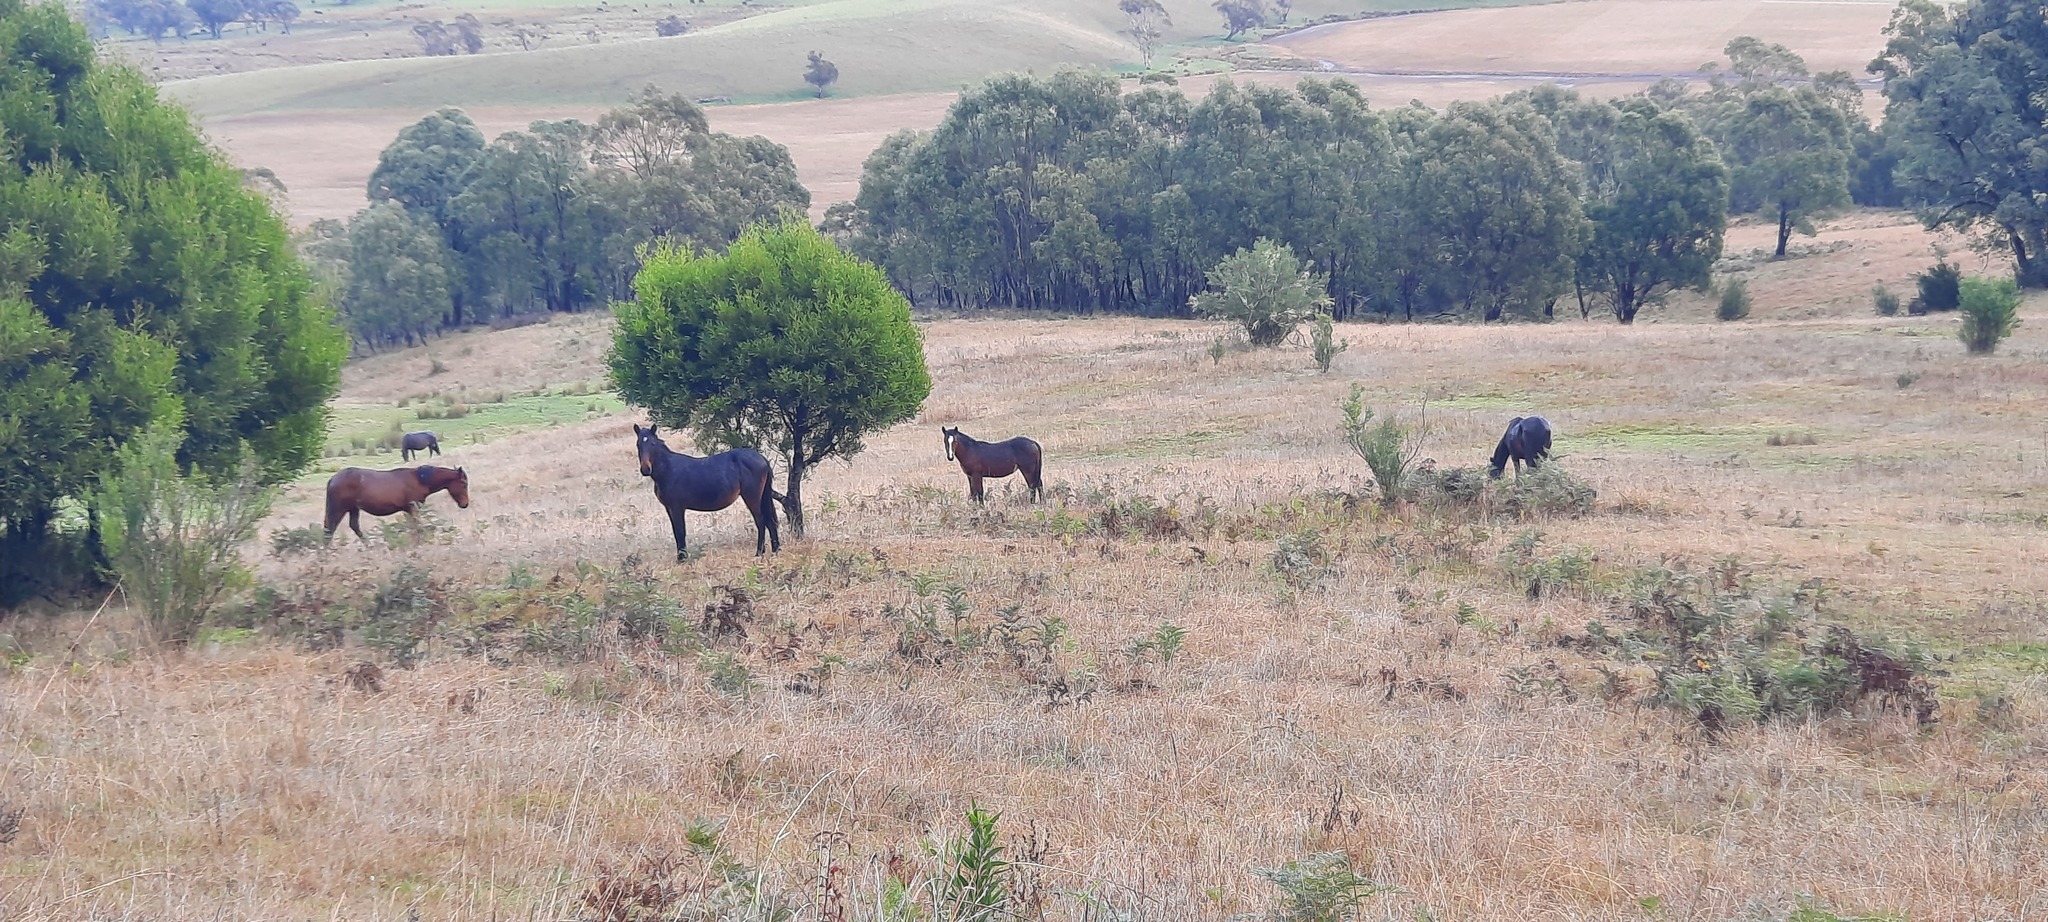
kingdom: Animalia
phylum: Chordata
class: Mammalia
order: Perissodactyla
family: Equidae
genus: Equus
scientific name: Equus caballus
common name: Horse
